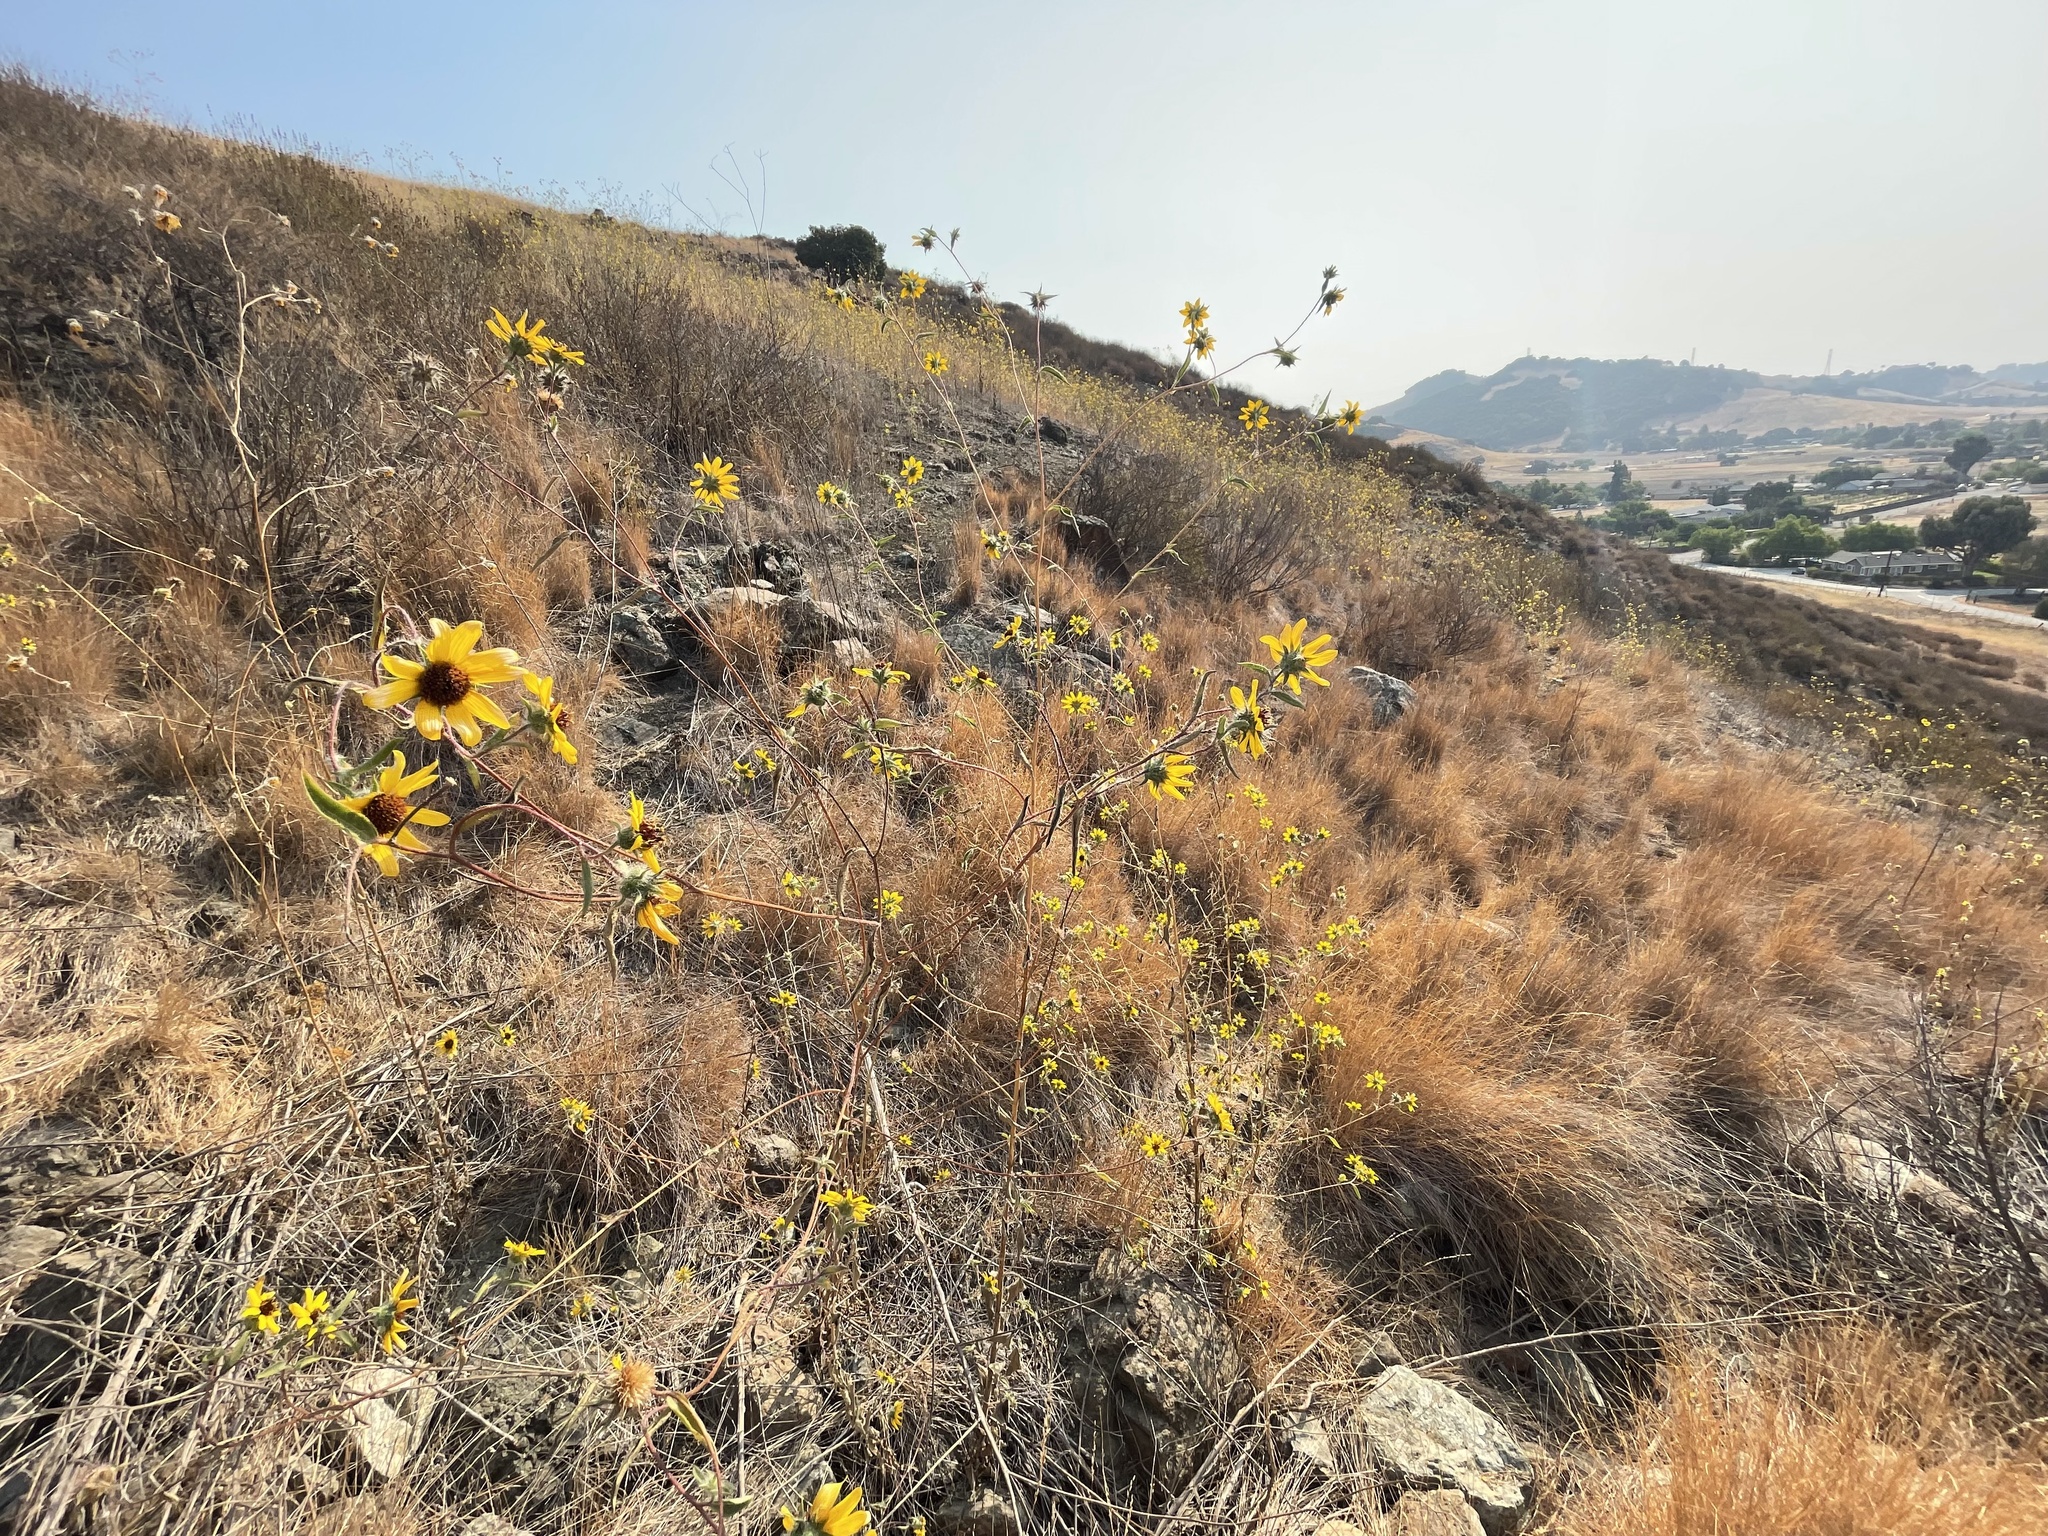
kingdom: Plantae
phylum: Tracheophyta
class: Magnoliopsida
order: Asterales
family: Asteraceae
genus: Helianthus
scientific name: Helianthus exilis
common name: Serpentine sunflower
